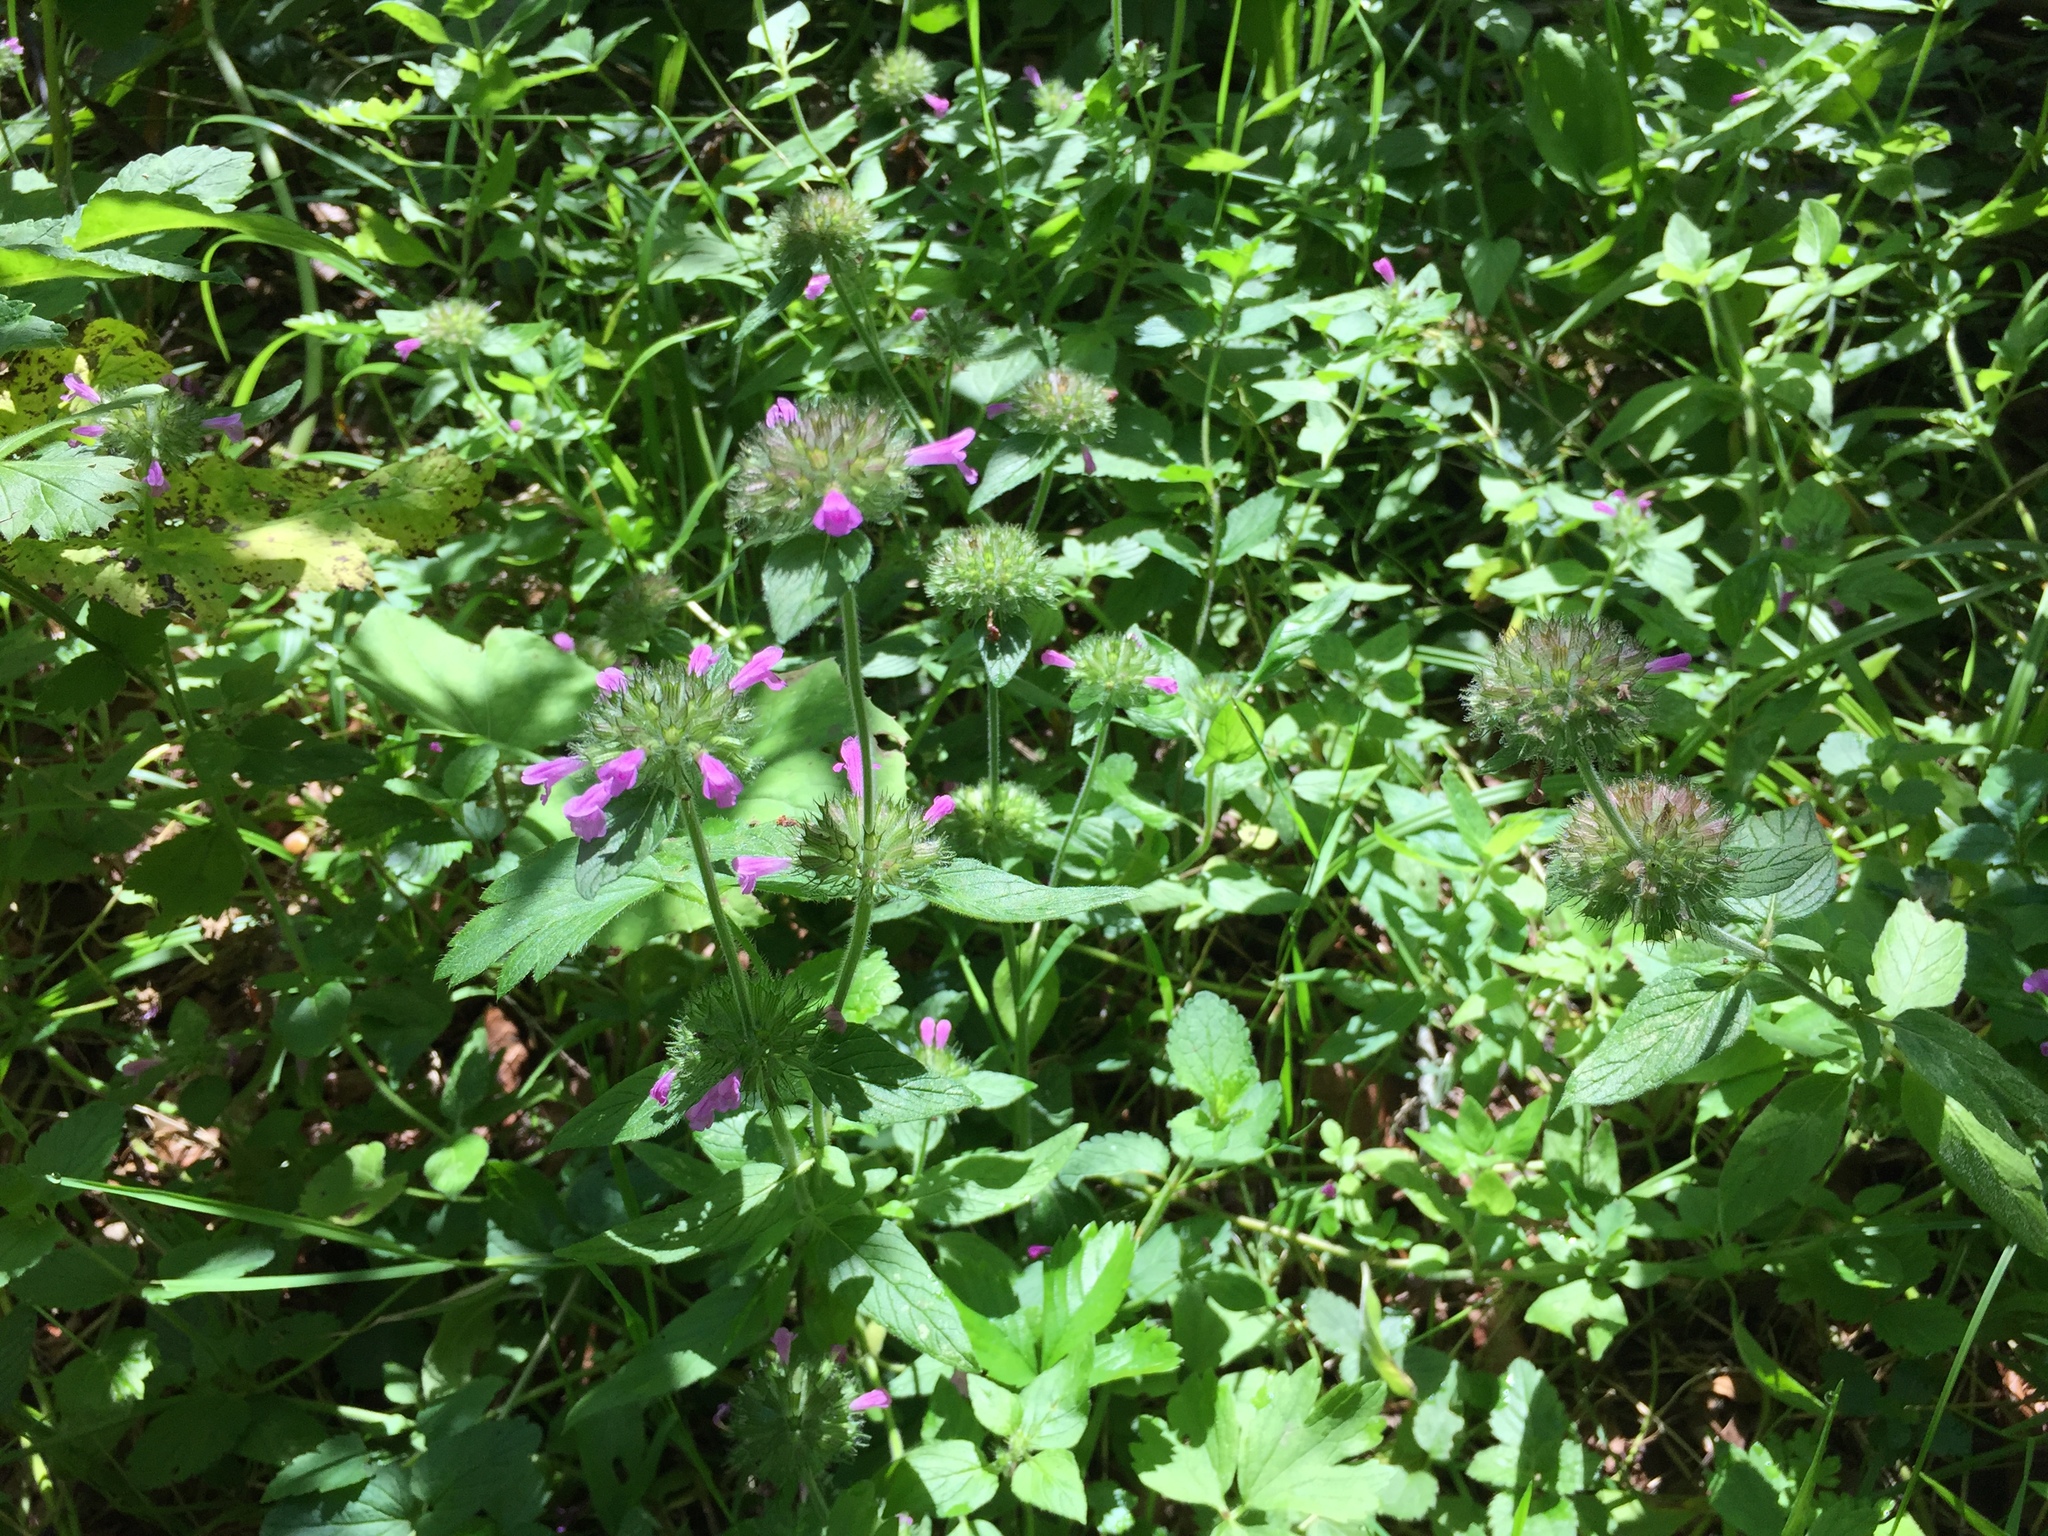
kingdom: Plantae
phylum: Tracheophyta
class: Magnoliopsida
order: Lamiales
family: Lamiaceae
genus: Clinopodium
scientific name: Clinopodium vulgare
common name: Wild basil
